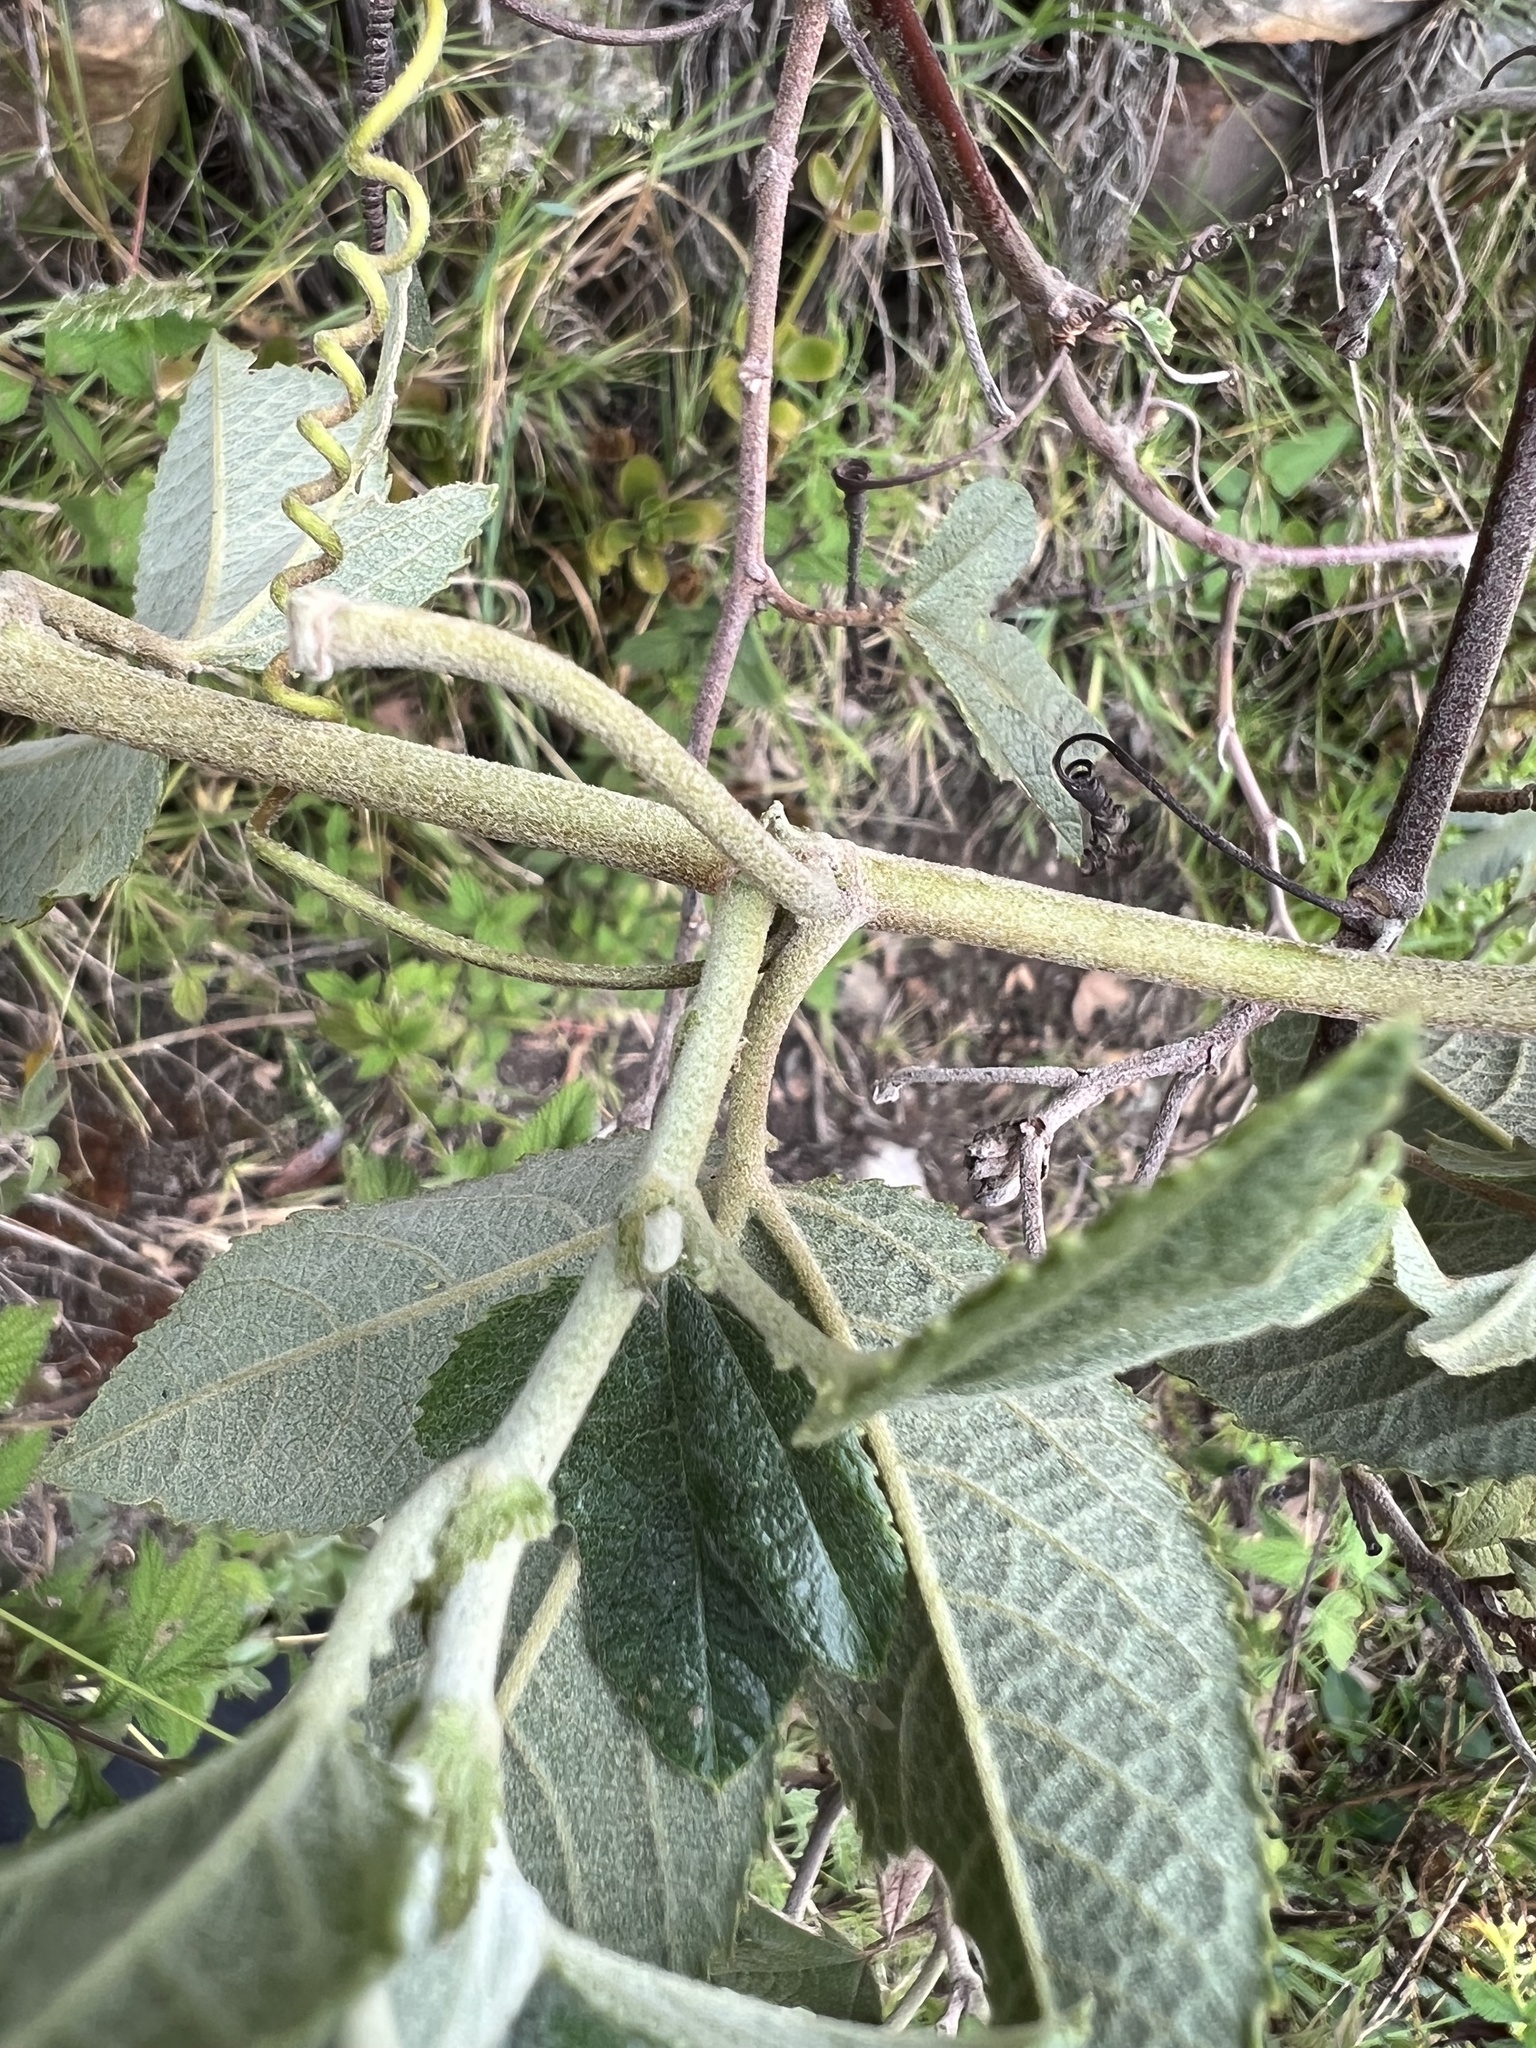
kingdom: Plantae
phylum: Tracheophyta
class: Magnoliopsida
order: Malpighiales
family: Passifloraceae
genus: Passiflora
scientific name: Passiflora rosea
